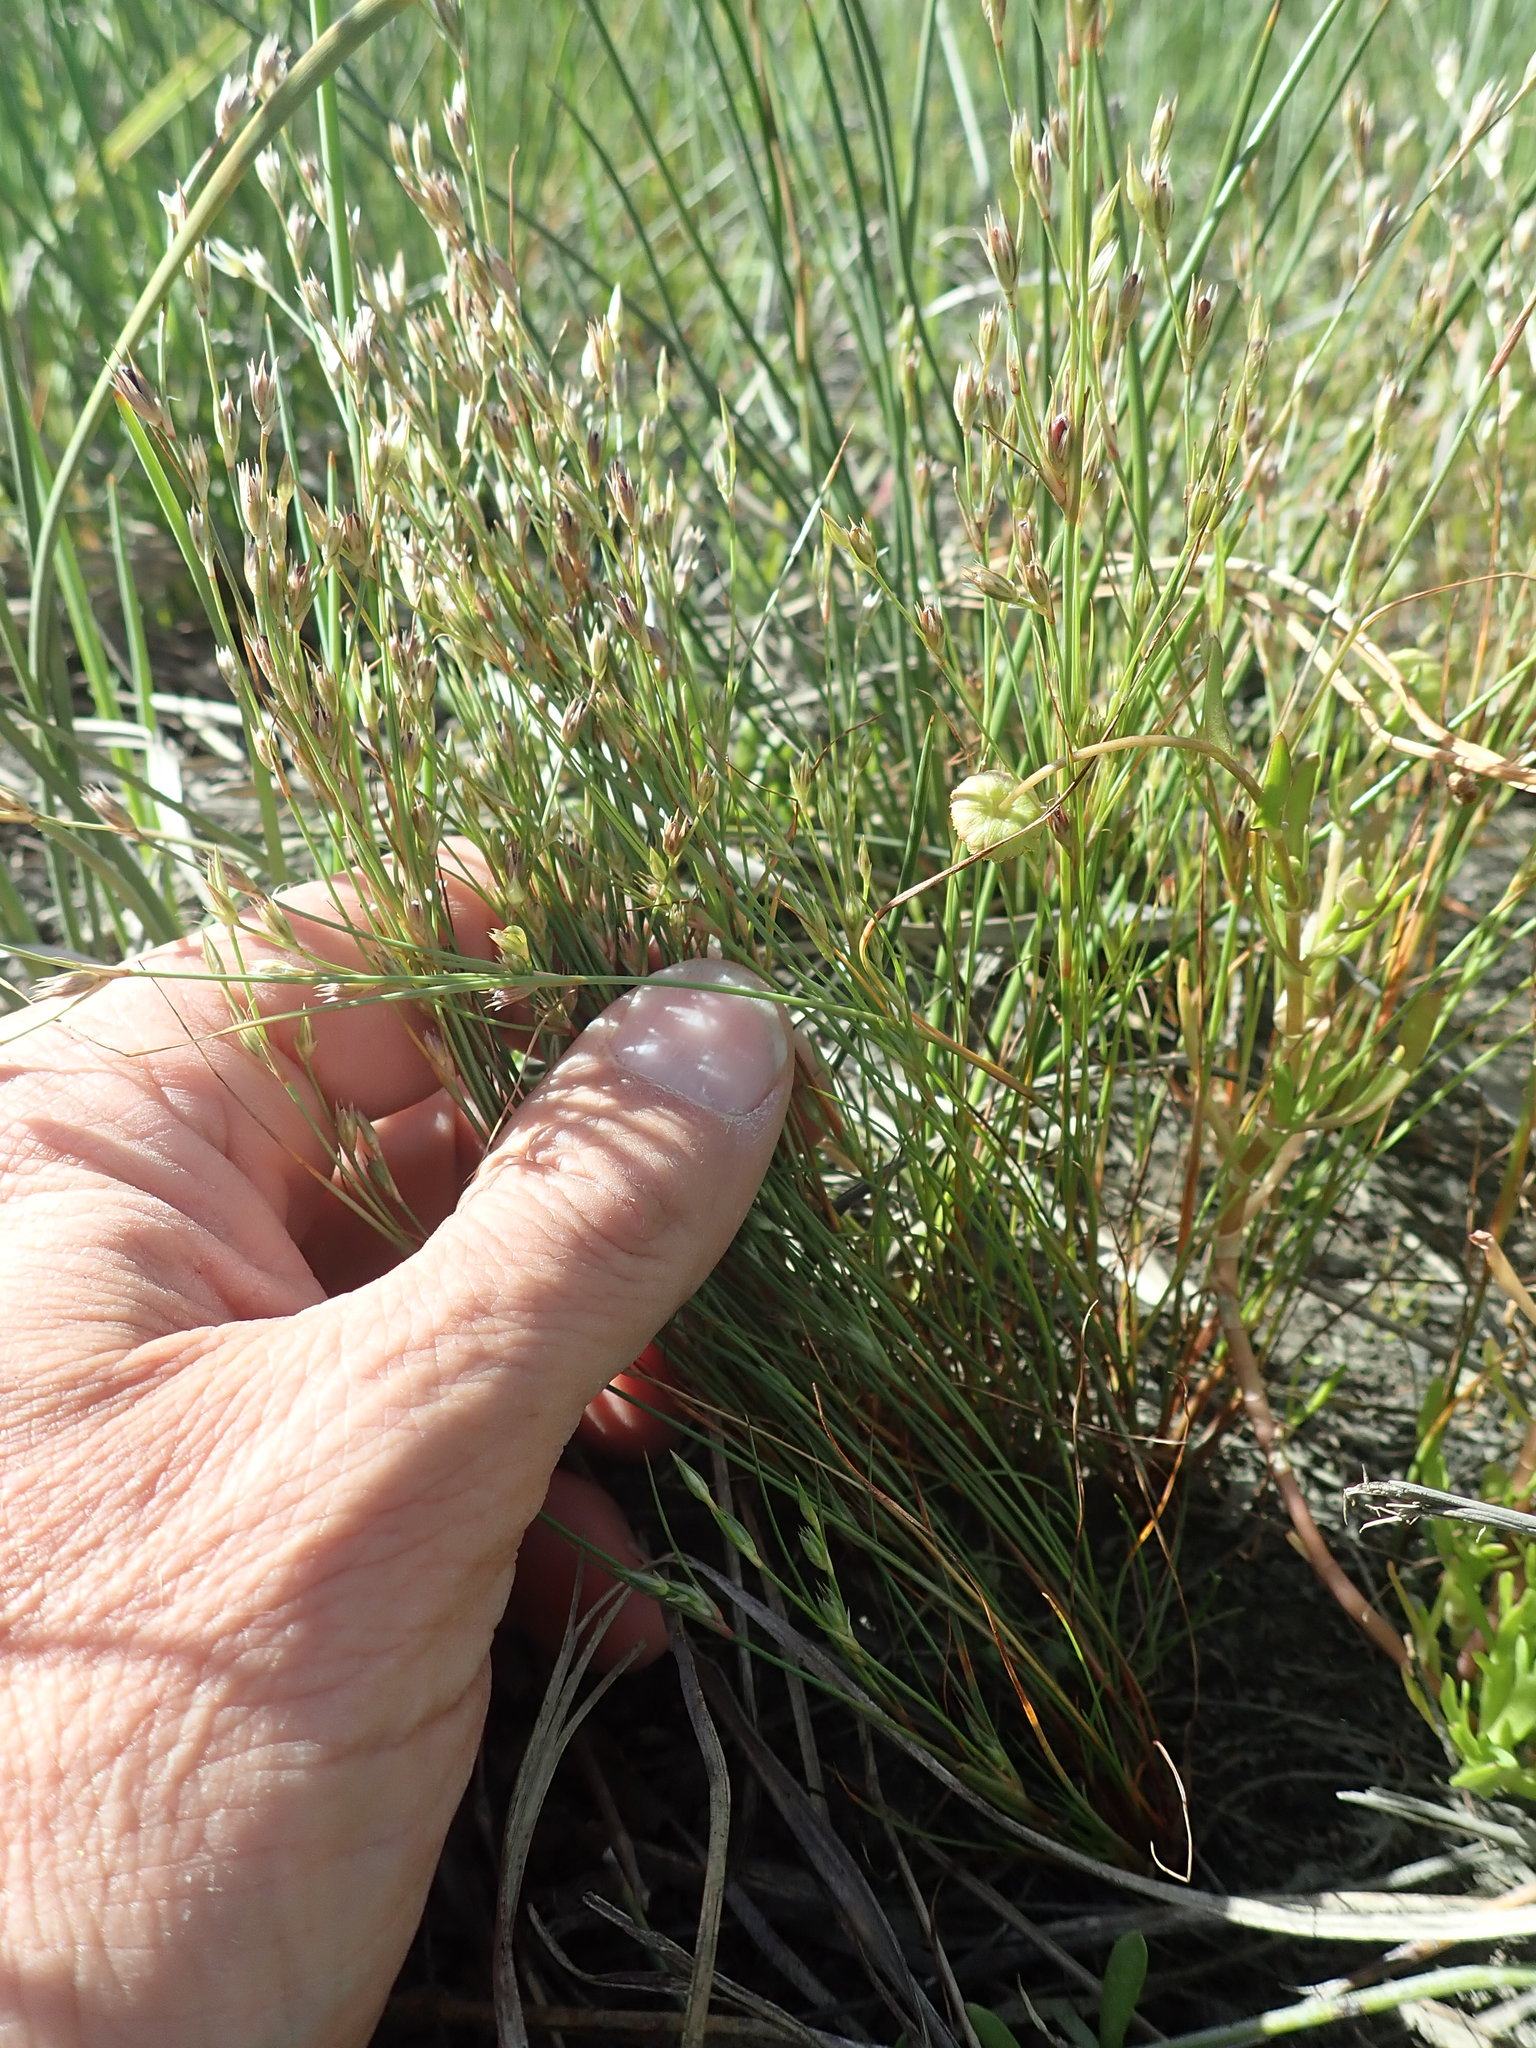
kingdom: Plantae
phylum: Tracheophyta
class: Liliopsida
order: Poales
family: Juncaceae
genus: Juncus
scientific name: Juncus bufonius
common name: Toad rush
